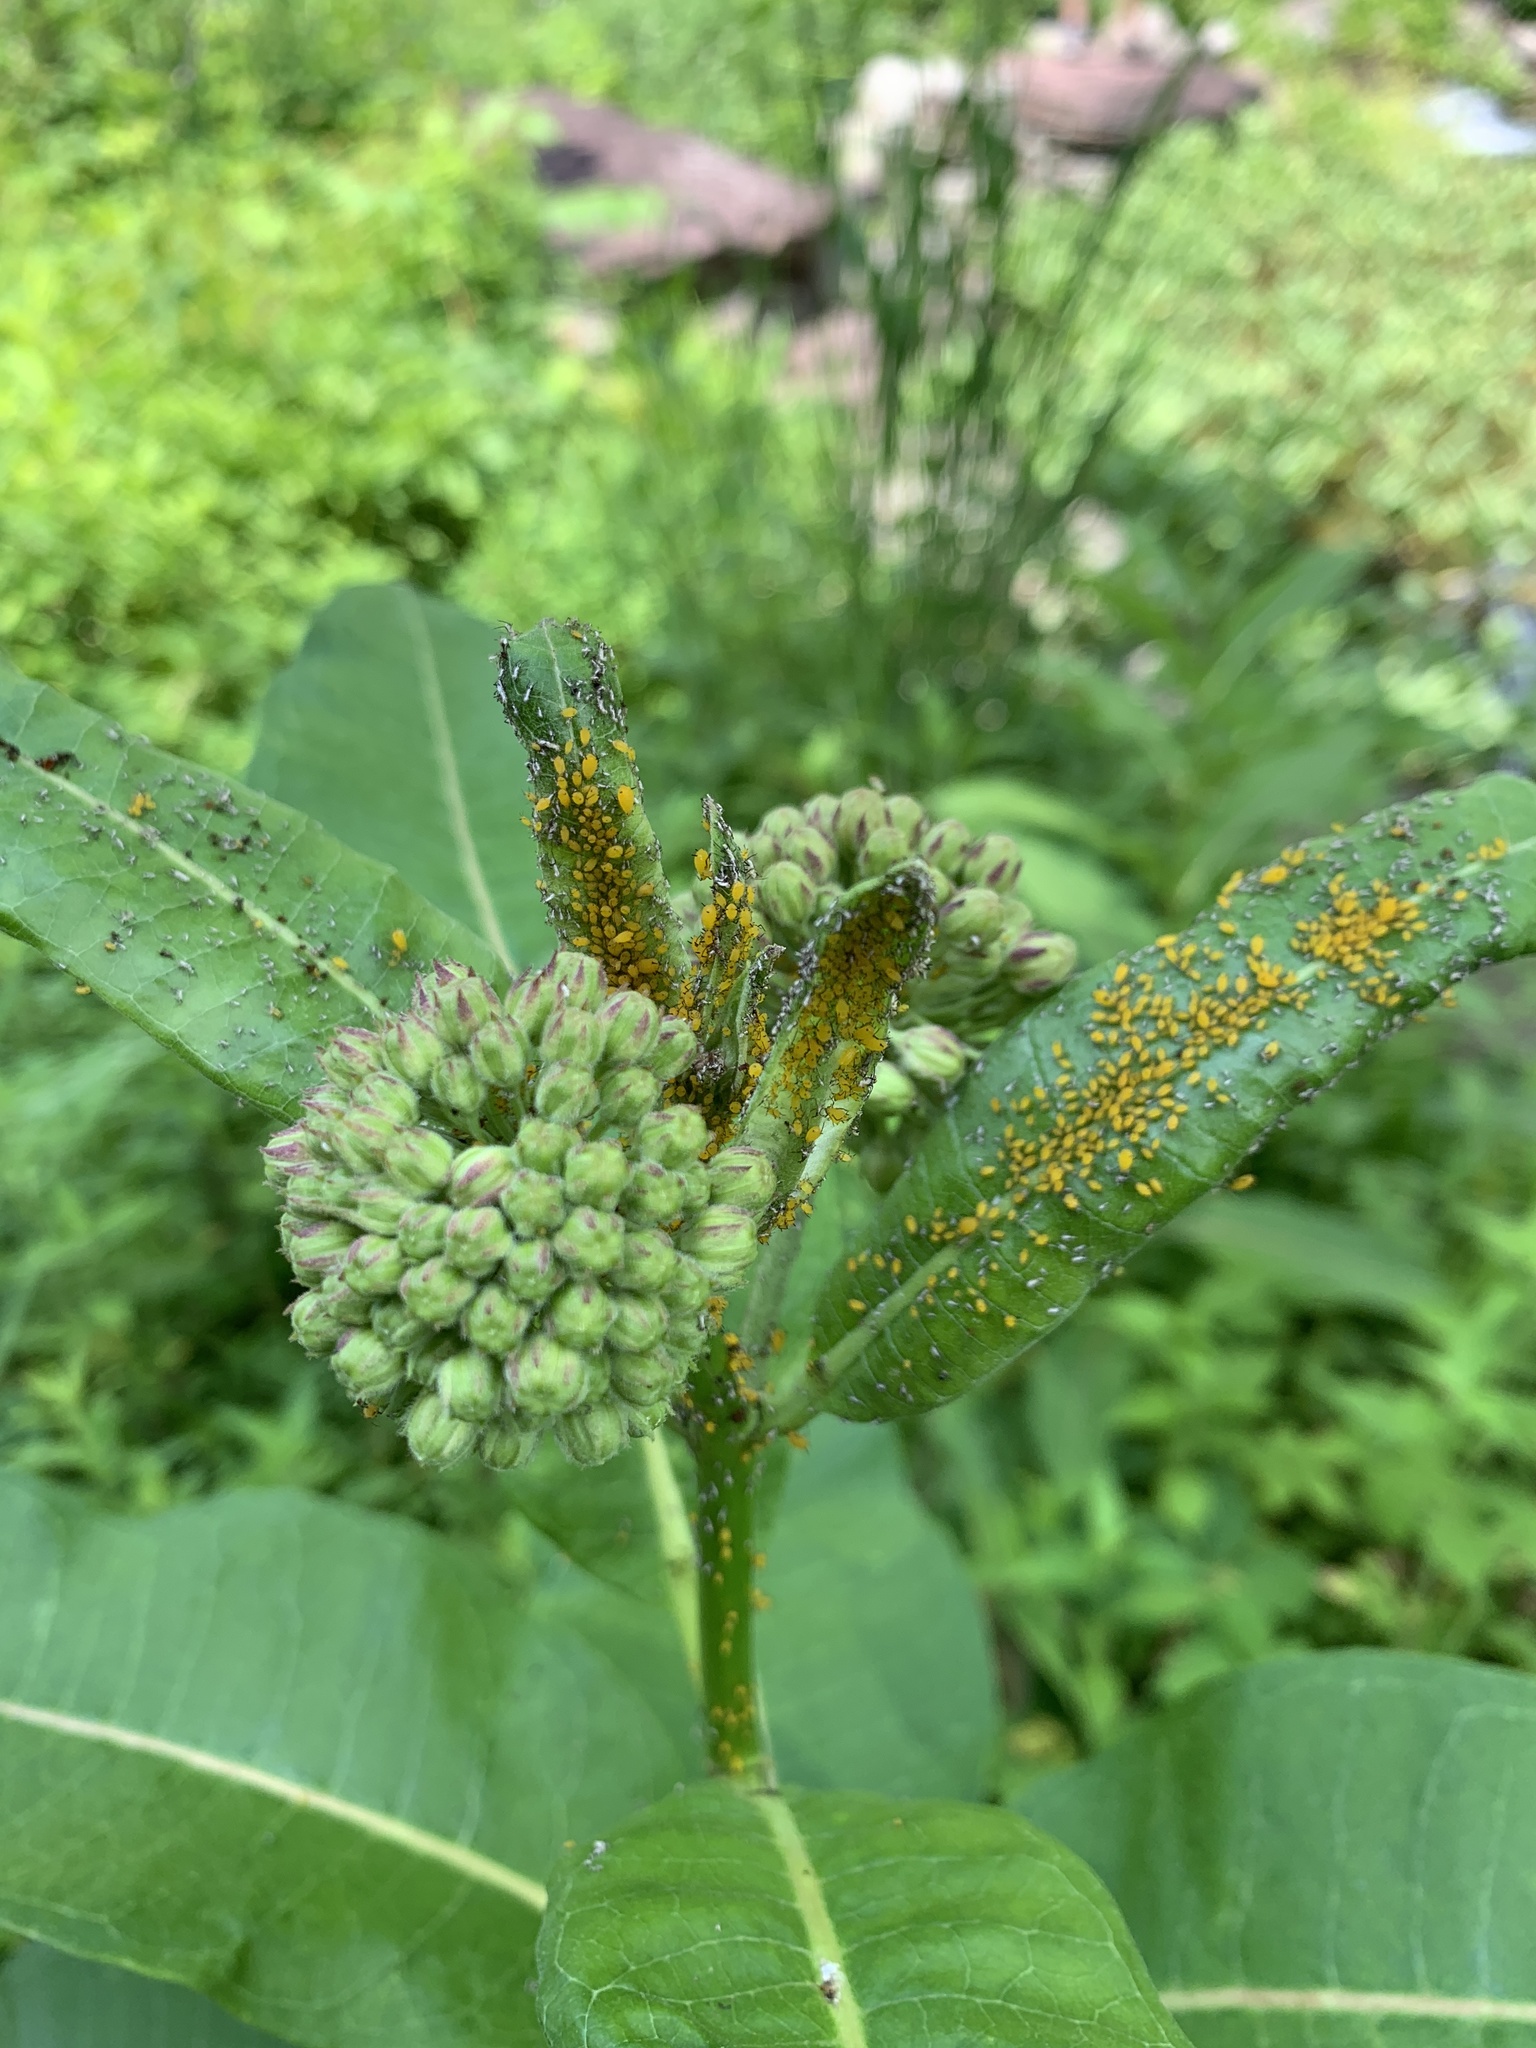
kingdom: Animalia
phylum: Arthropoda
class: Insecta
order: Hemiptera
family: Aphididae
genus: Aphis
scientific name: Aphis nerii
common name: Oleander aphid
